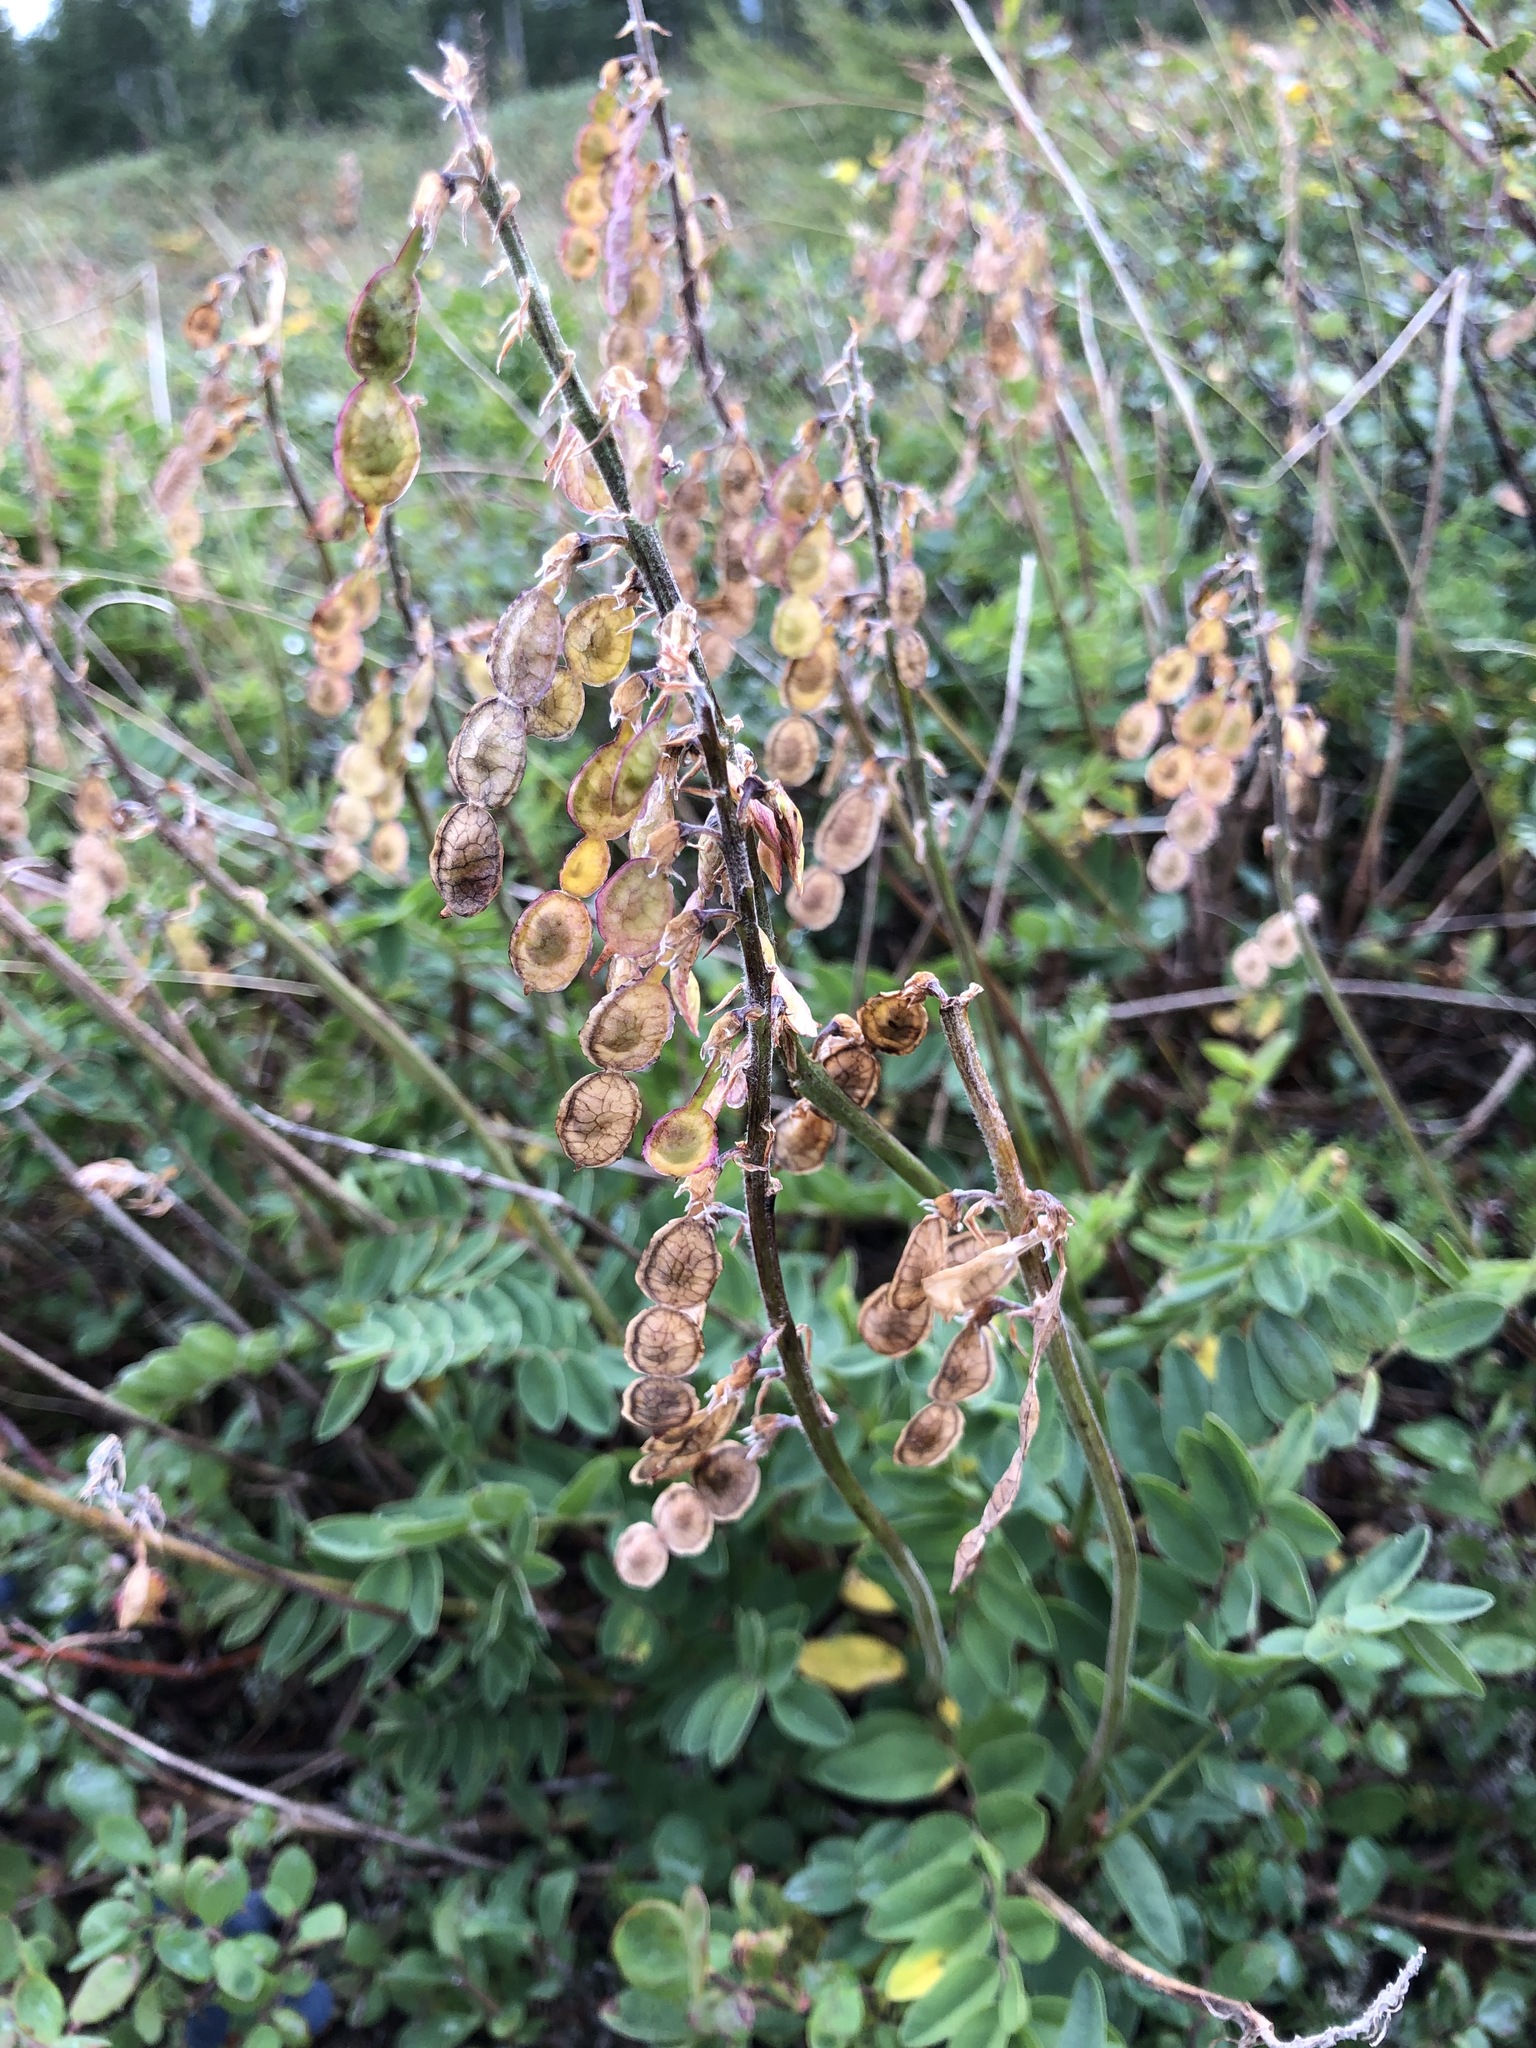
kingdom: Plantae
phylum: Tracheophyta
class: Magnoliopsida
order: Fabales
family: Fabaceae
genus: Hedysarum
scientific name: Hedysarum hedysaroides
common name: Alpine french-honeysuckle
